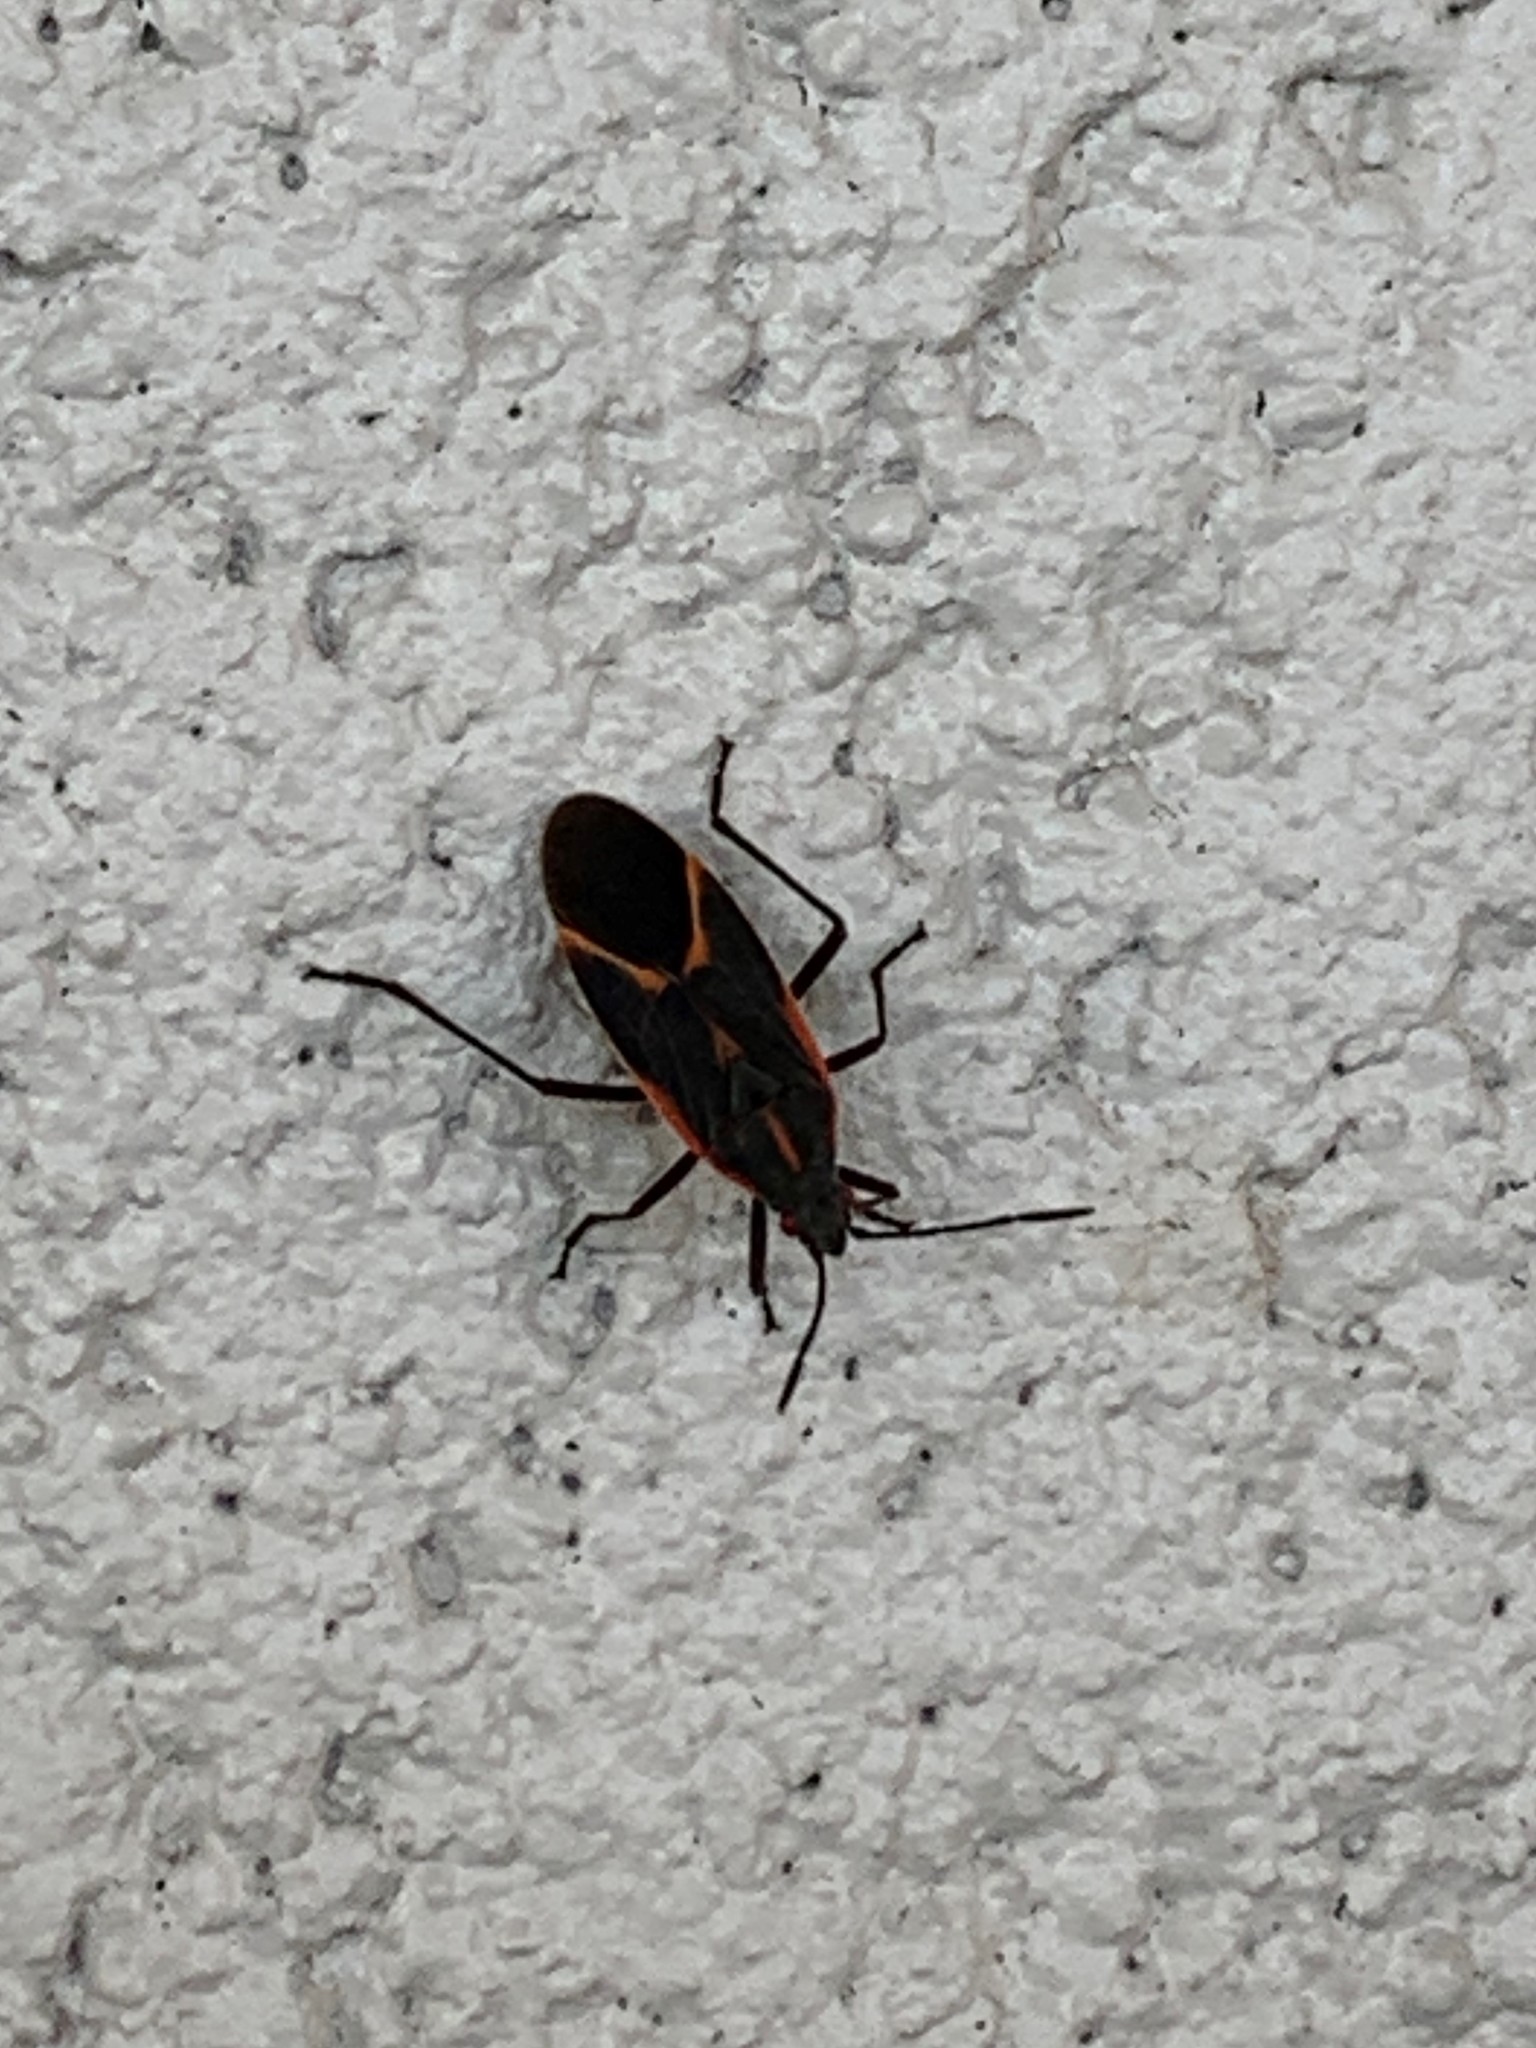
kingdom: Animalia
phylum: Arthropoda
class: Insecta
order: Hemiptera
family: Rhopalidae
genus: Boisea
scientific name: Boisea trivittata
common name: Boxelder bug
